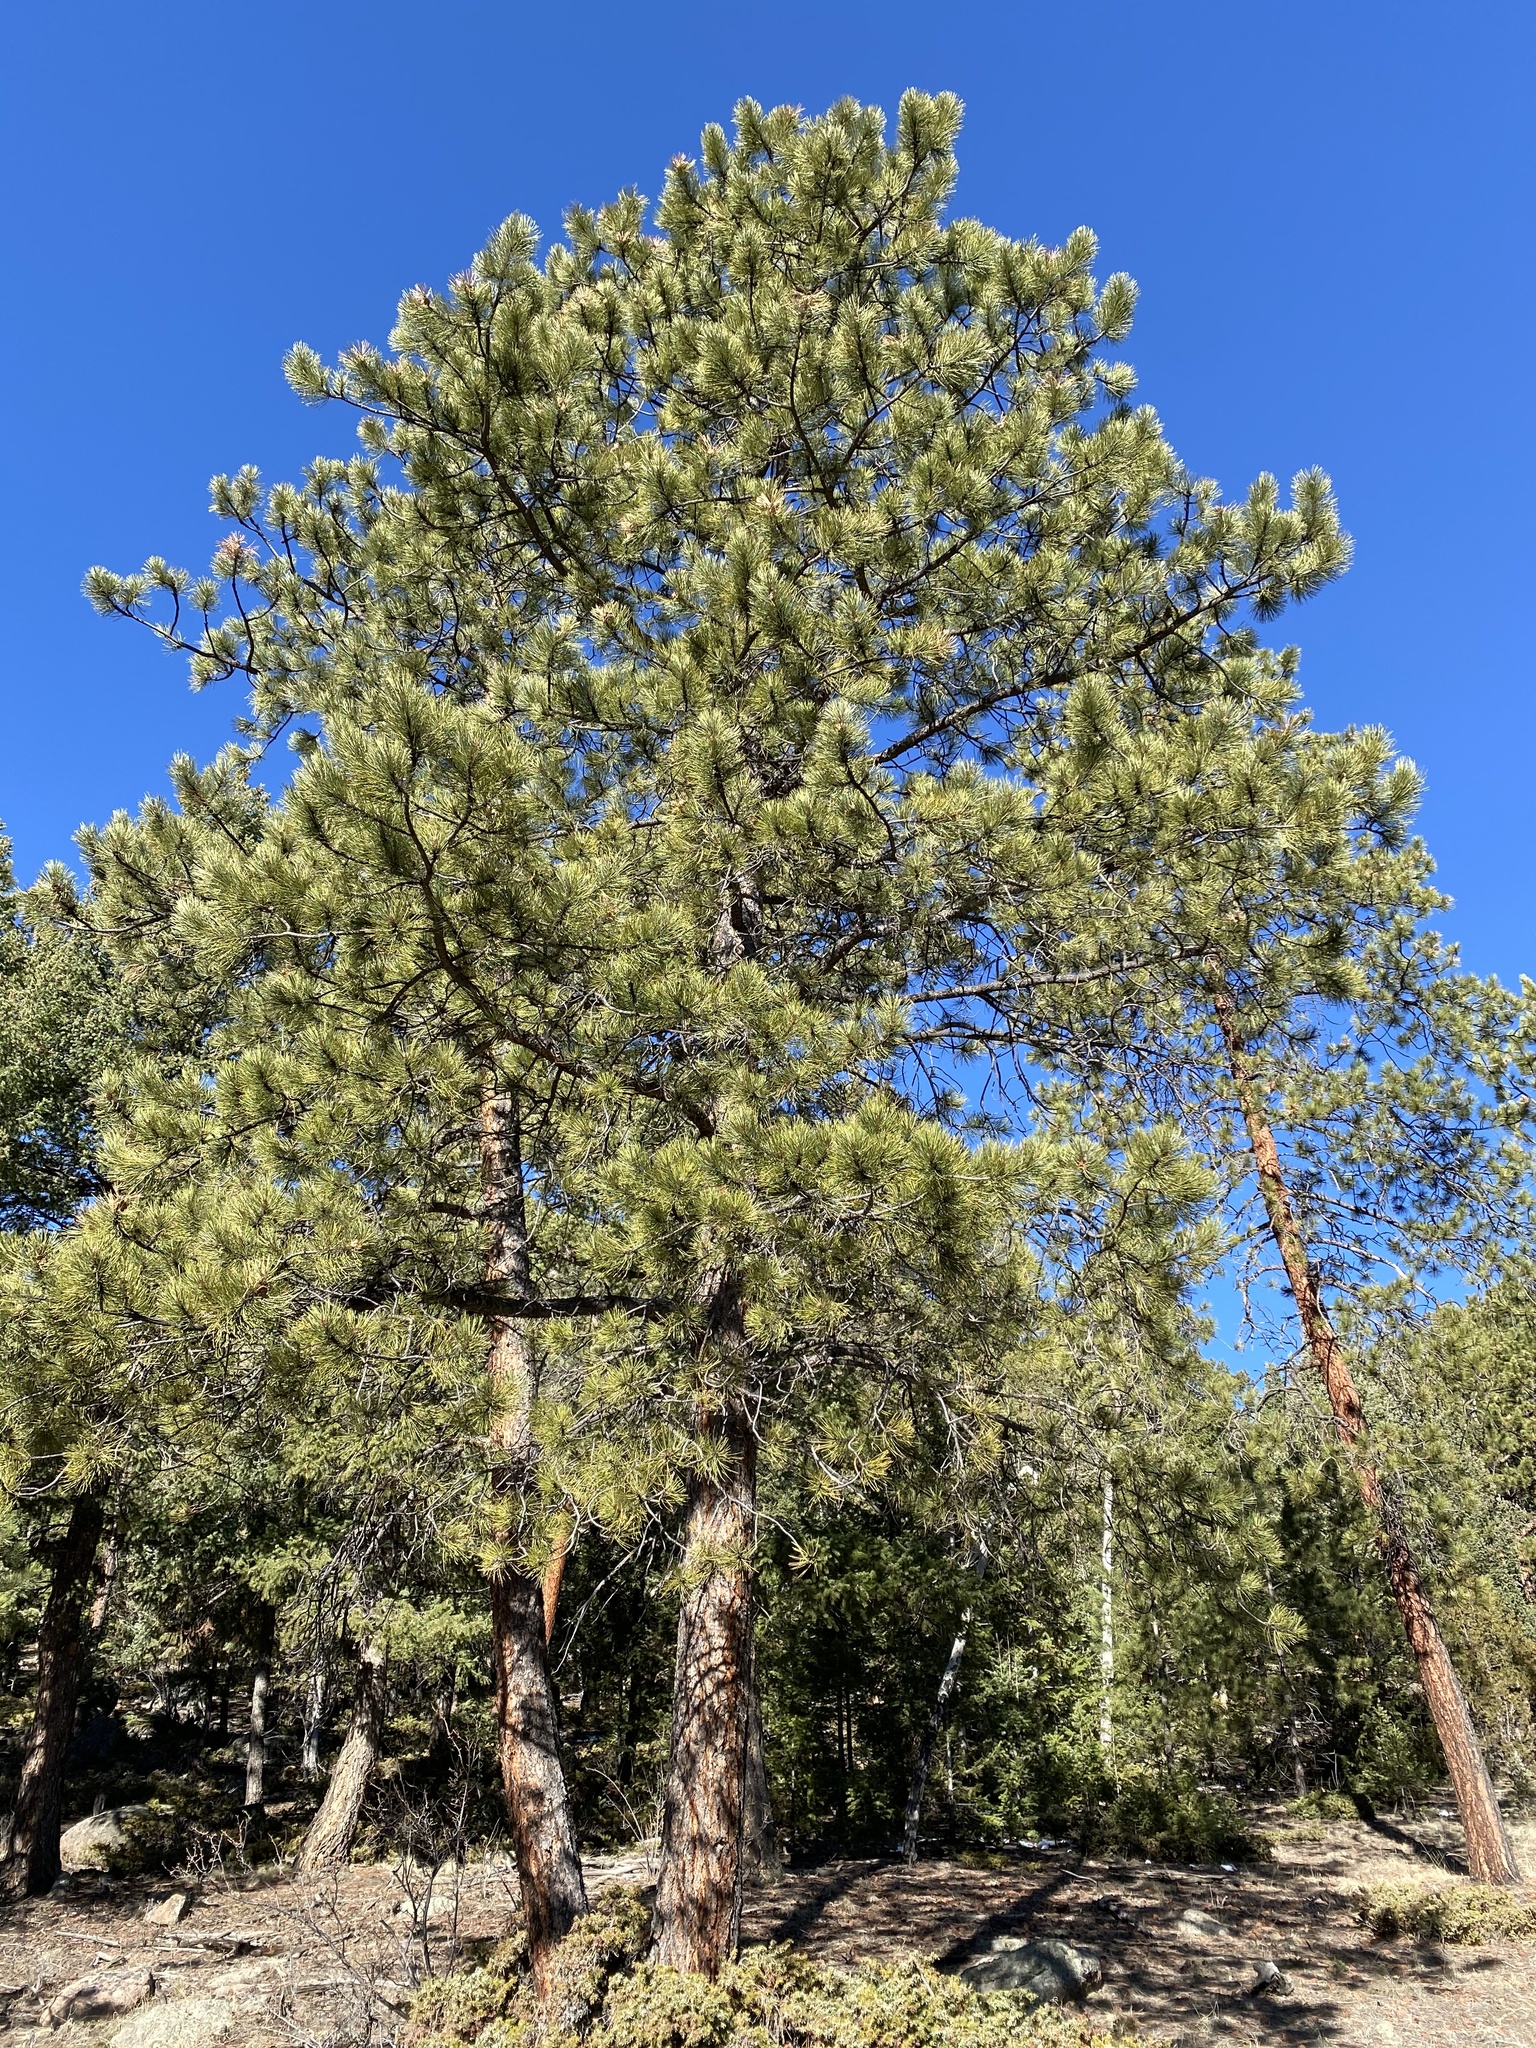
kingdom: Plantae
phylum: Tracheophyta
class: Pinopsida
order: Pinales
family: Pinaceae
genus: Pinus
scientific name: Pinus ponderosa
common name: Western yellow-pine
